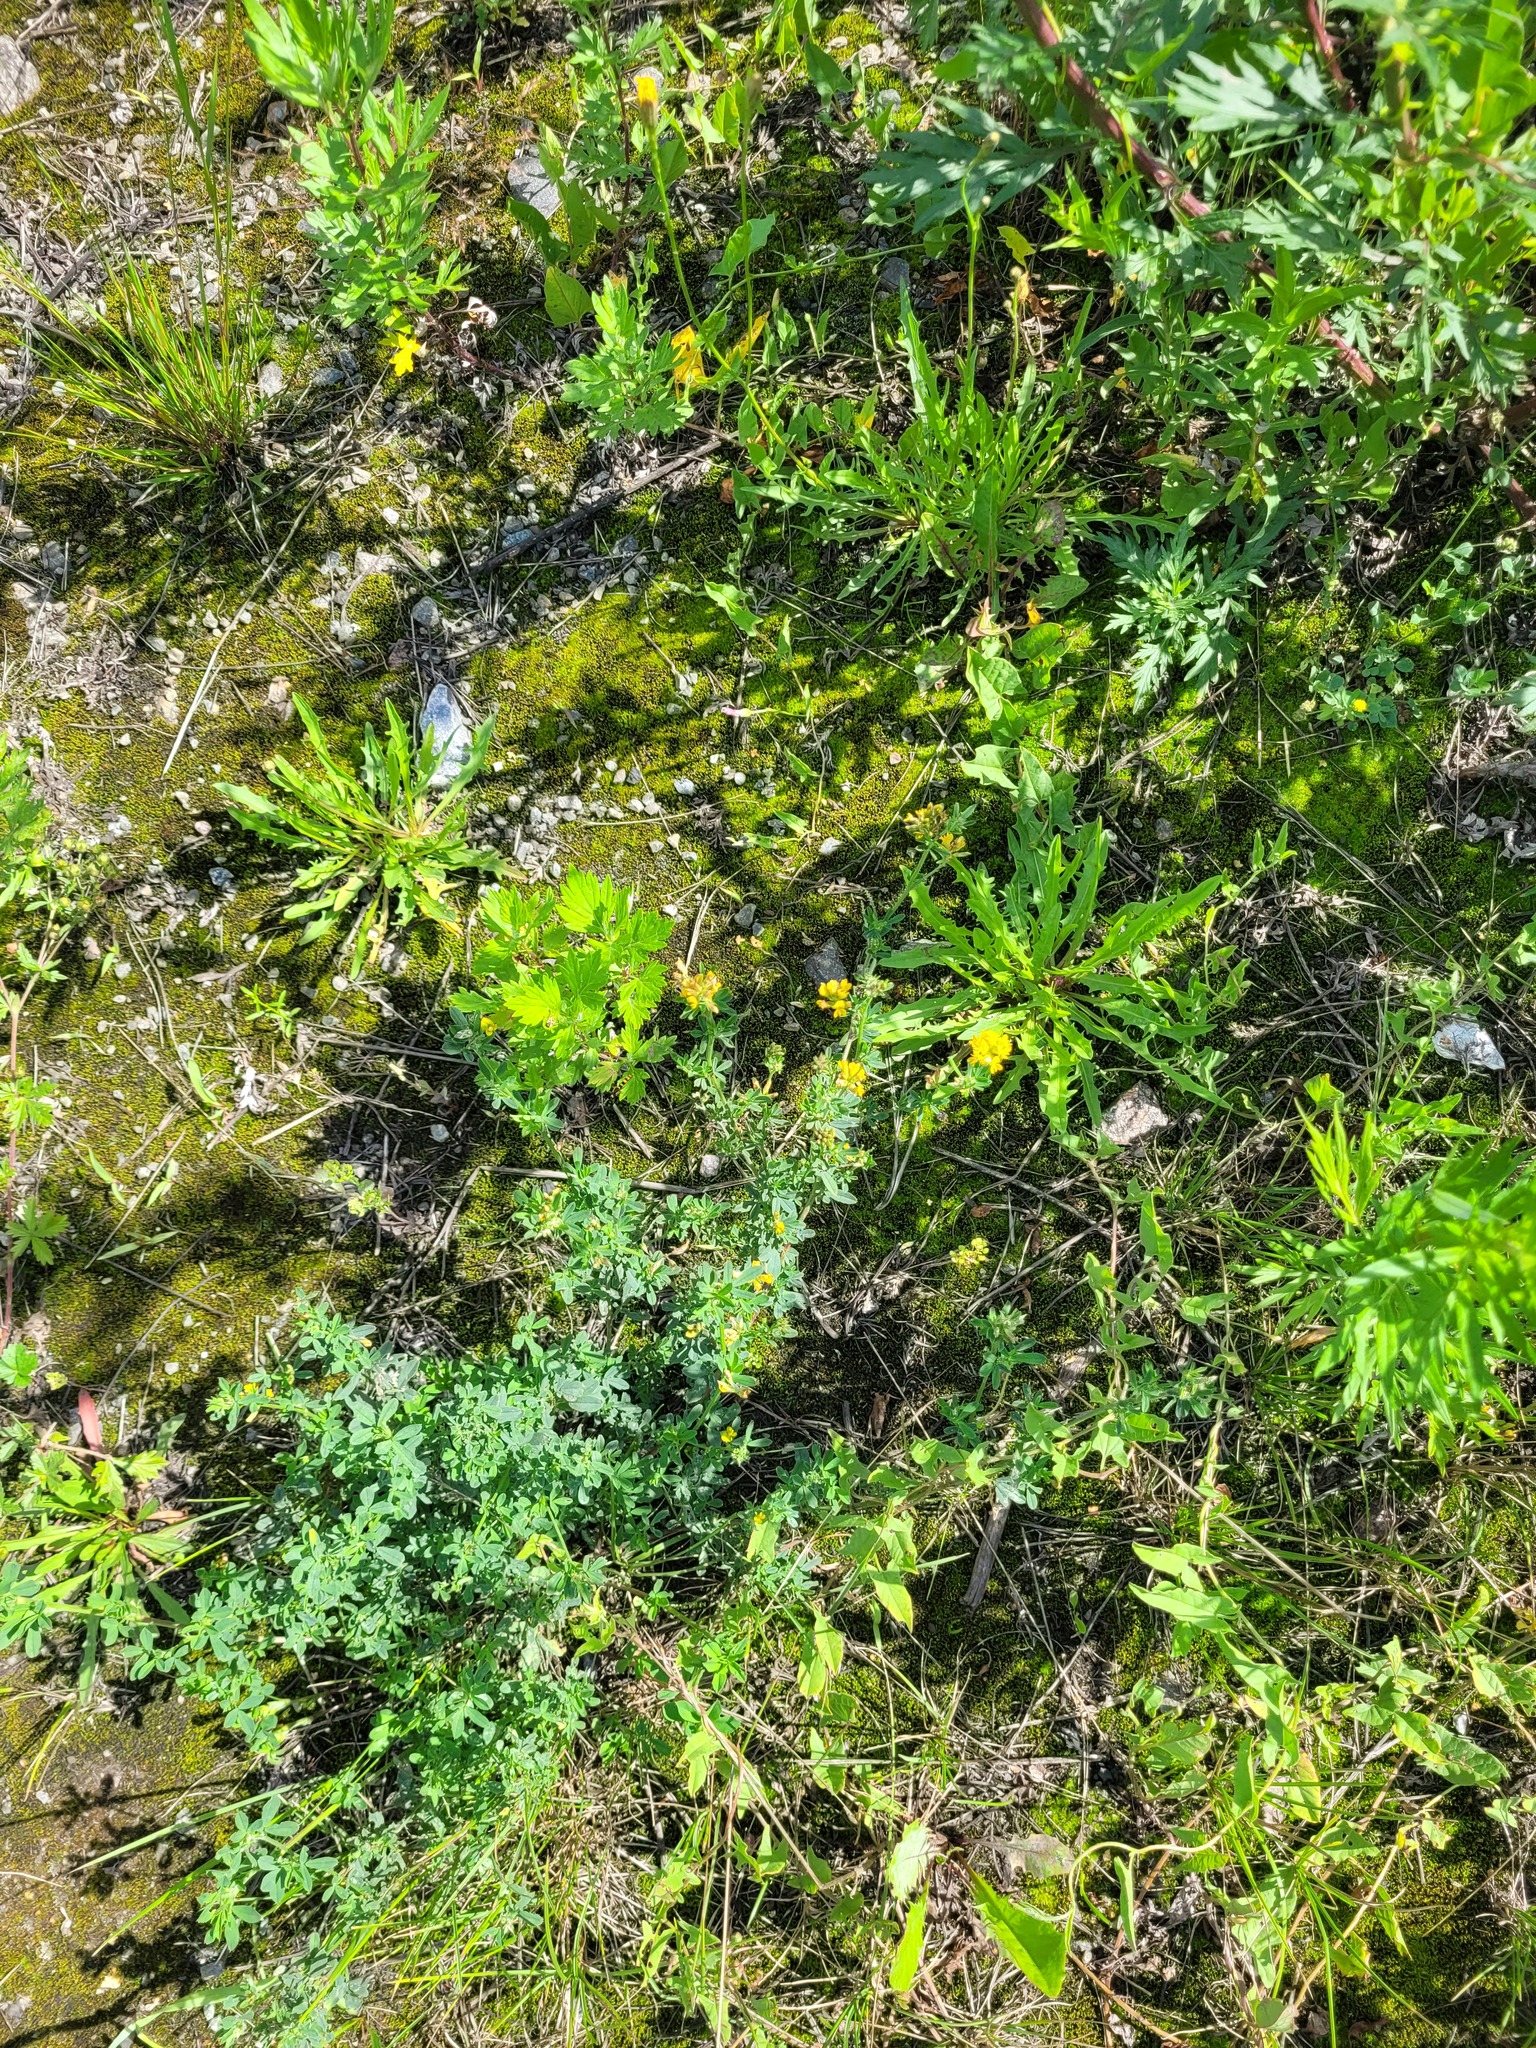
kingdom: Plantae
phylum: Tracheophyta
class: Magnoliopsida
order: Fabales
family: Fabaceae
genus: Medicago
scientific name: Medicago falcata
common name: Sickle medick
